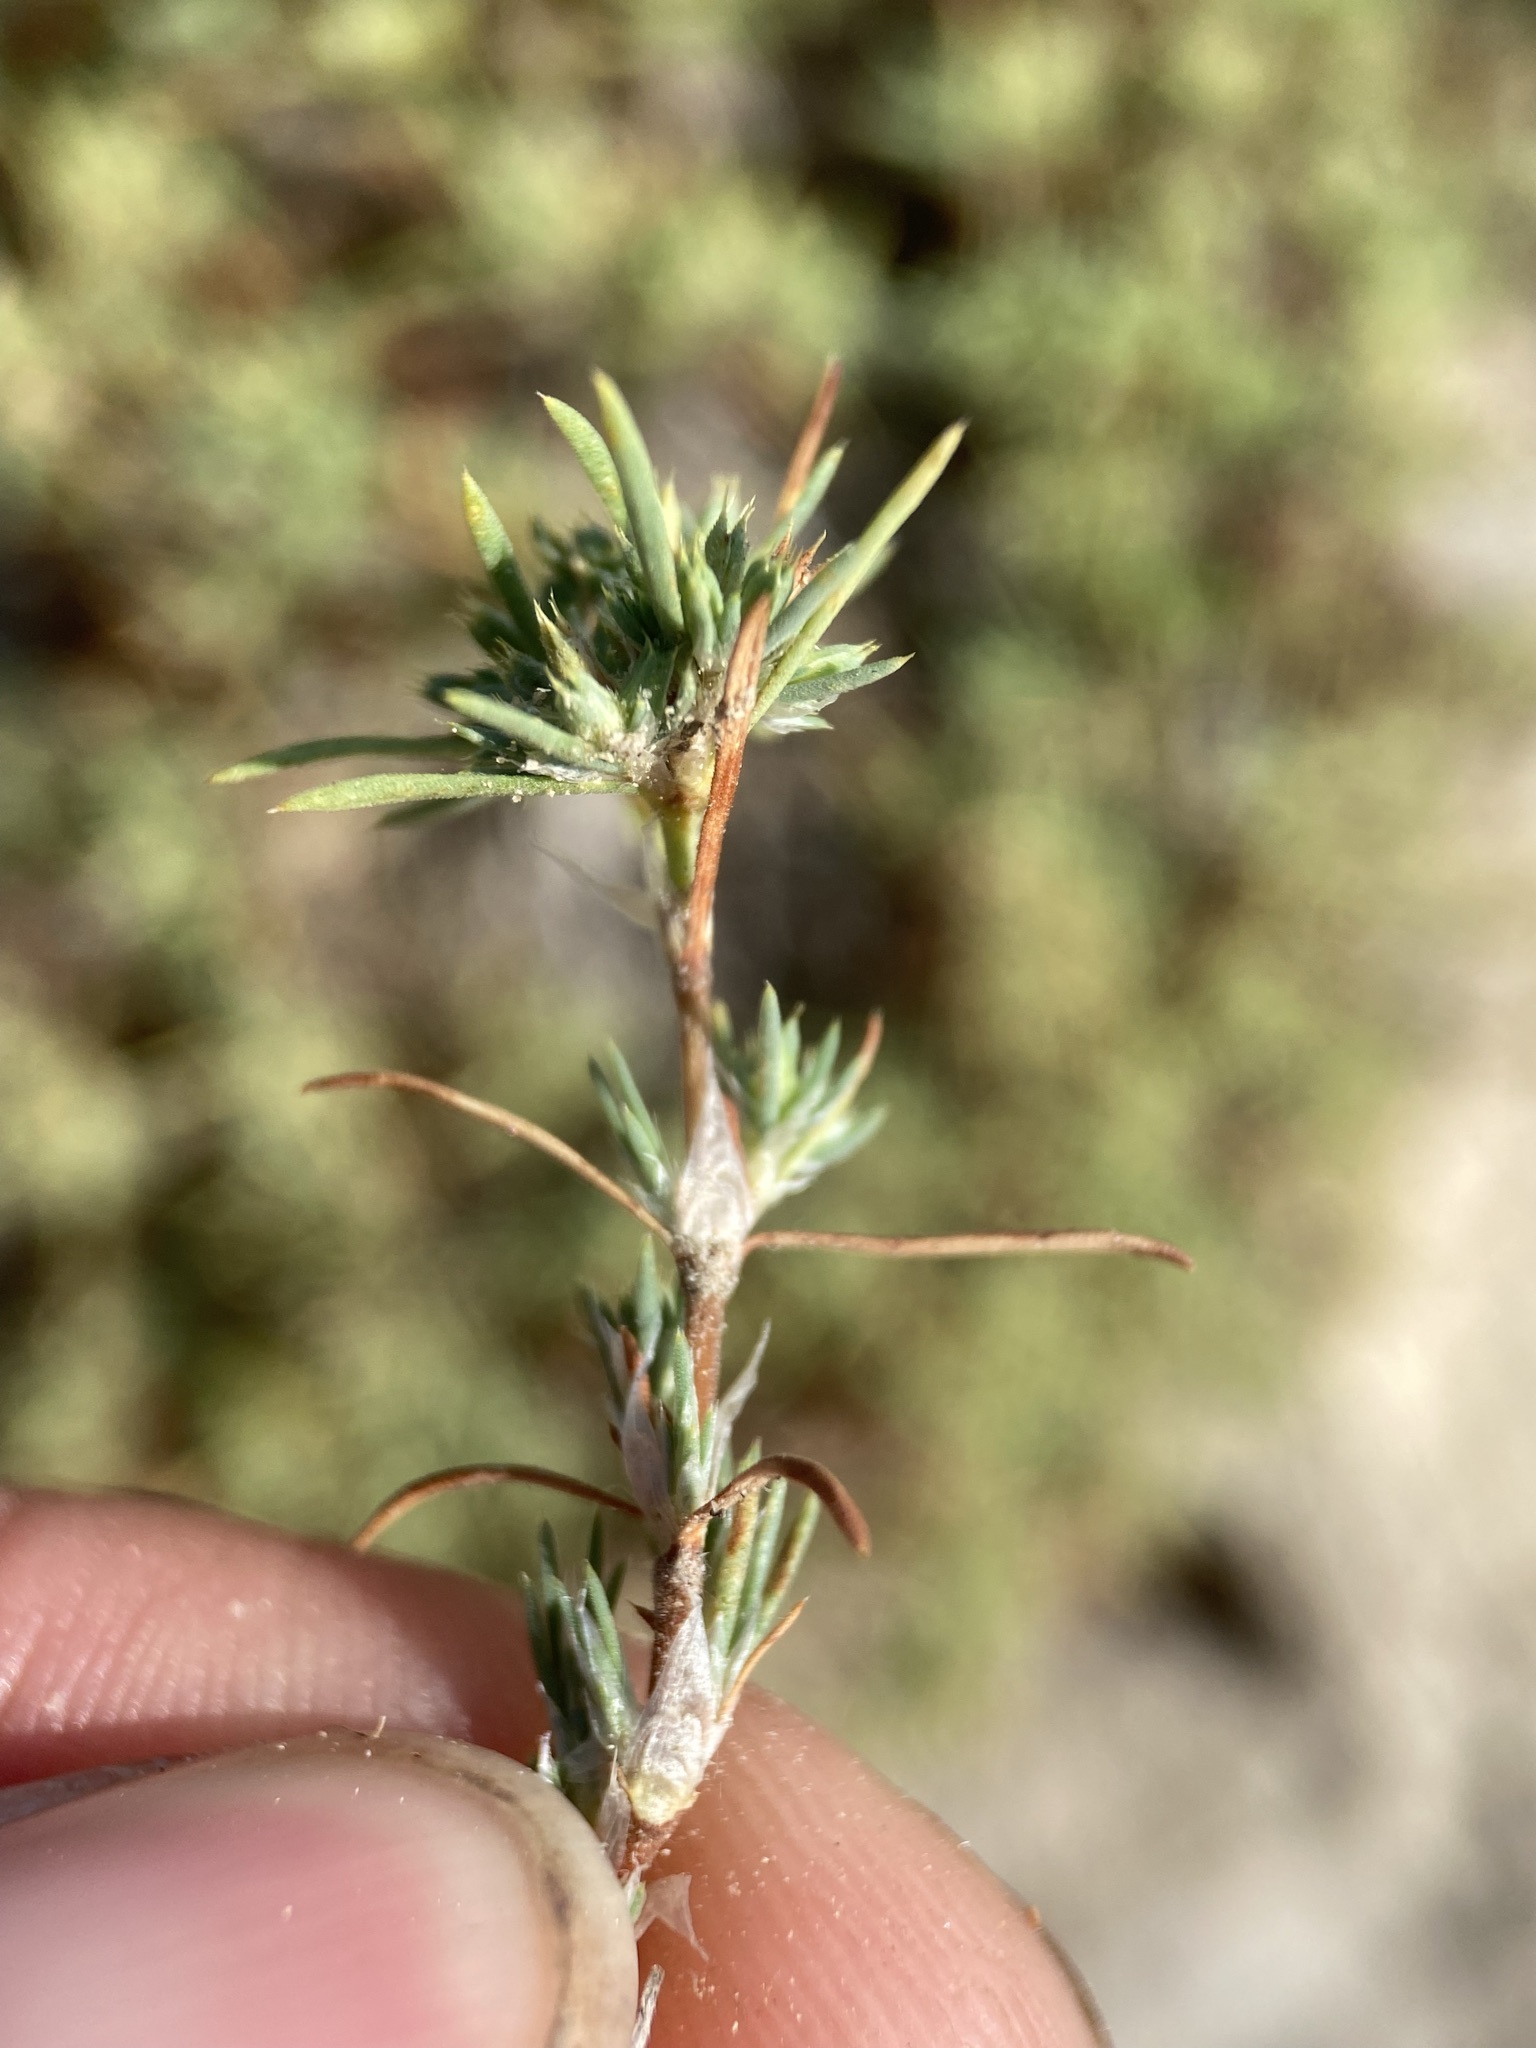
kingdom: Plantae
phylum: Tracheophyta
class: Magnoliopsida
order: Caryophyllales
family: Caryophyllaceae
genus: Paronychia
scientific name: Paronychia depressa
